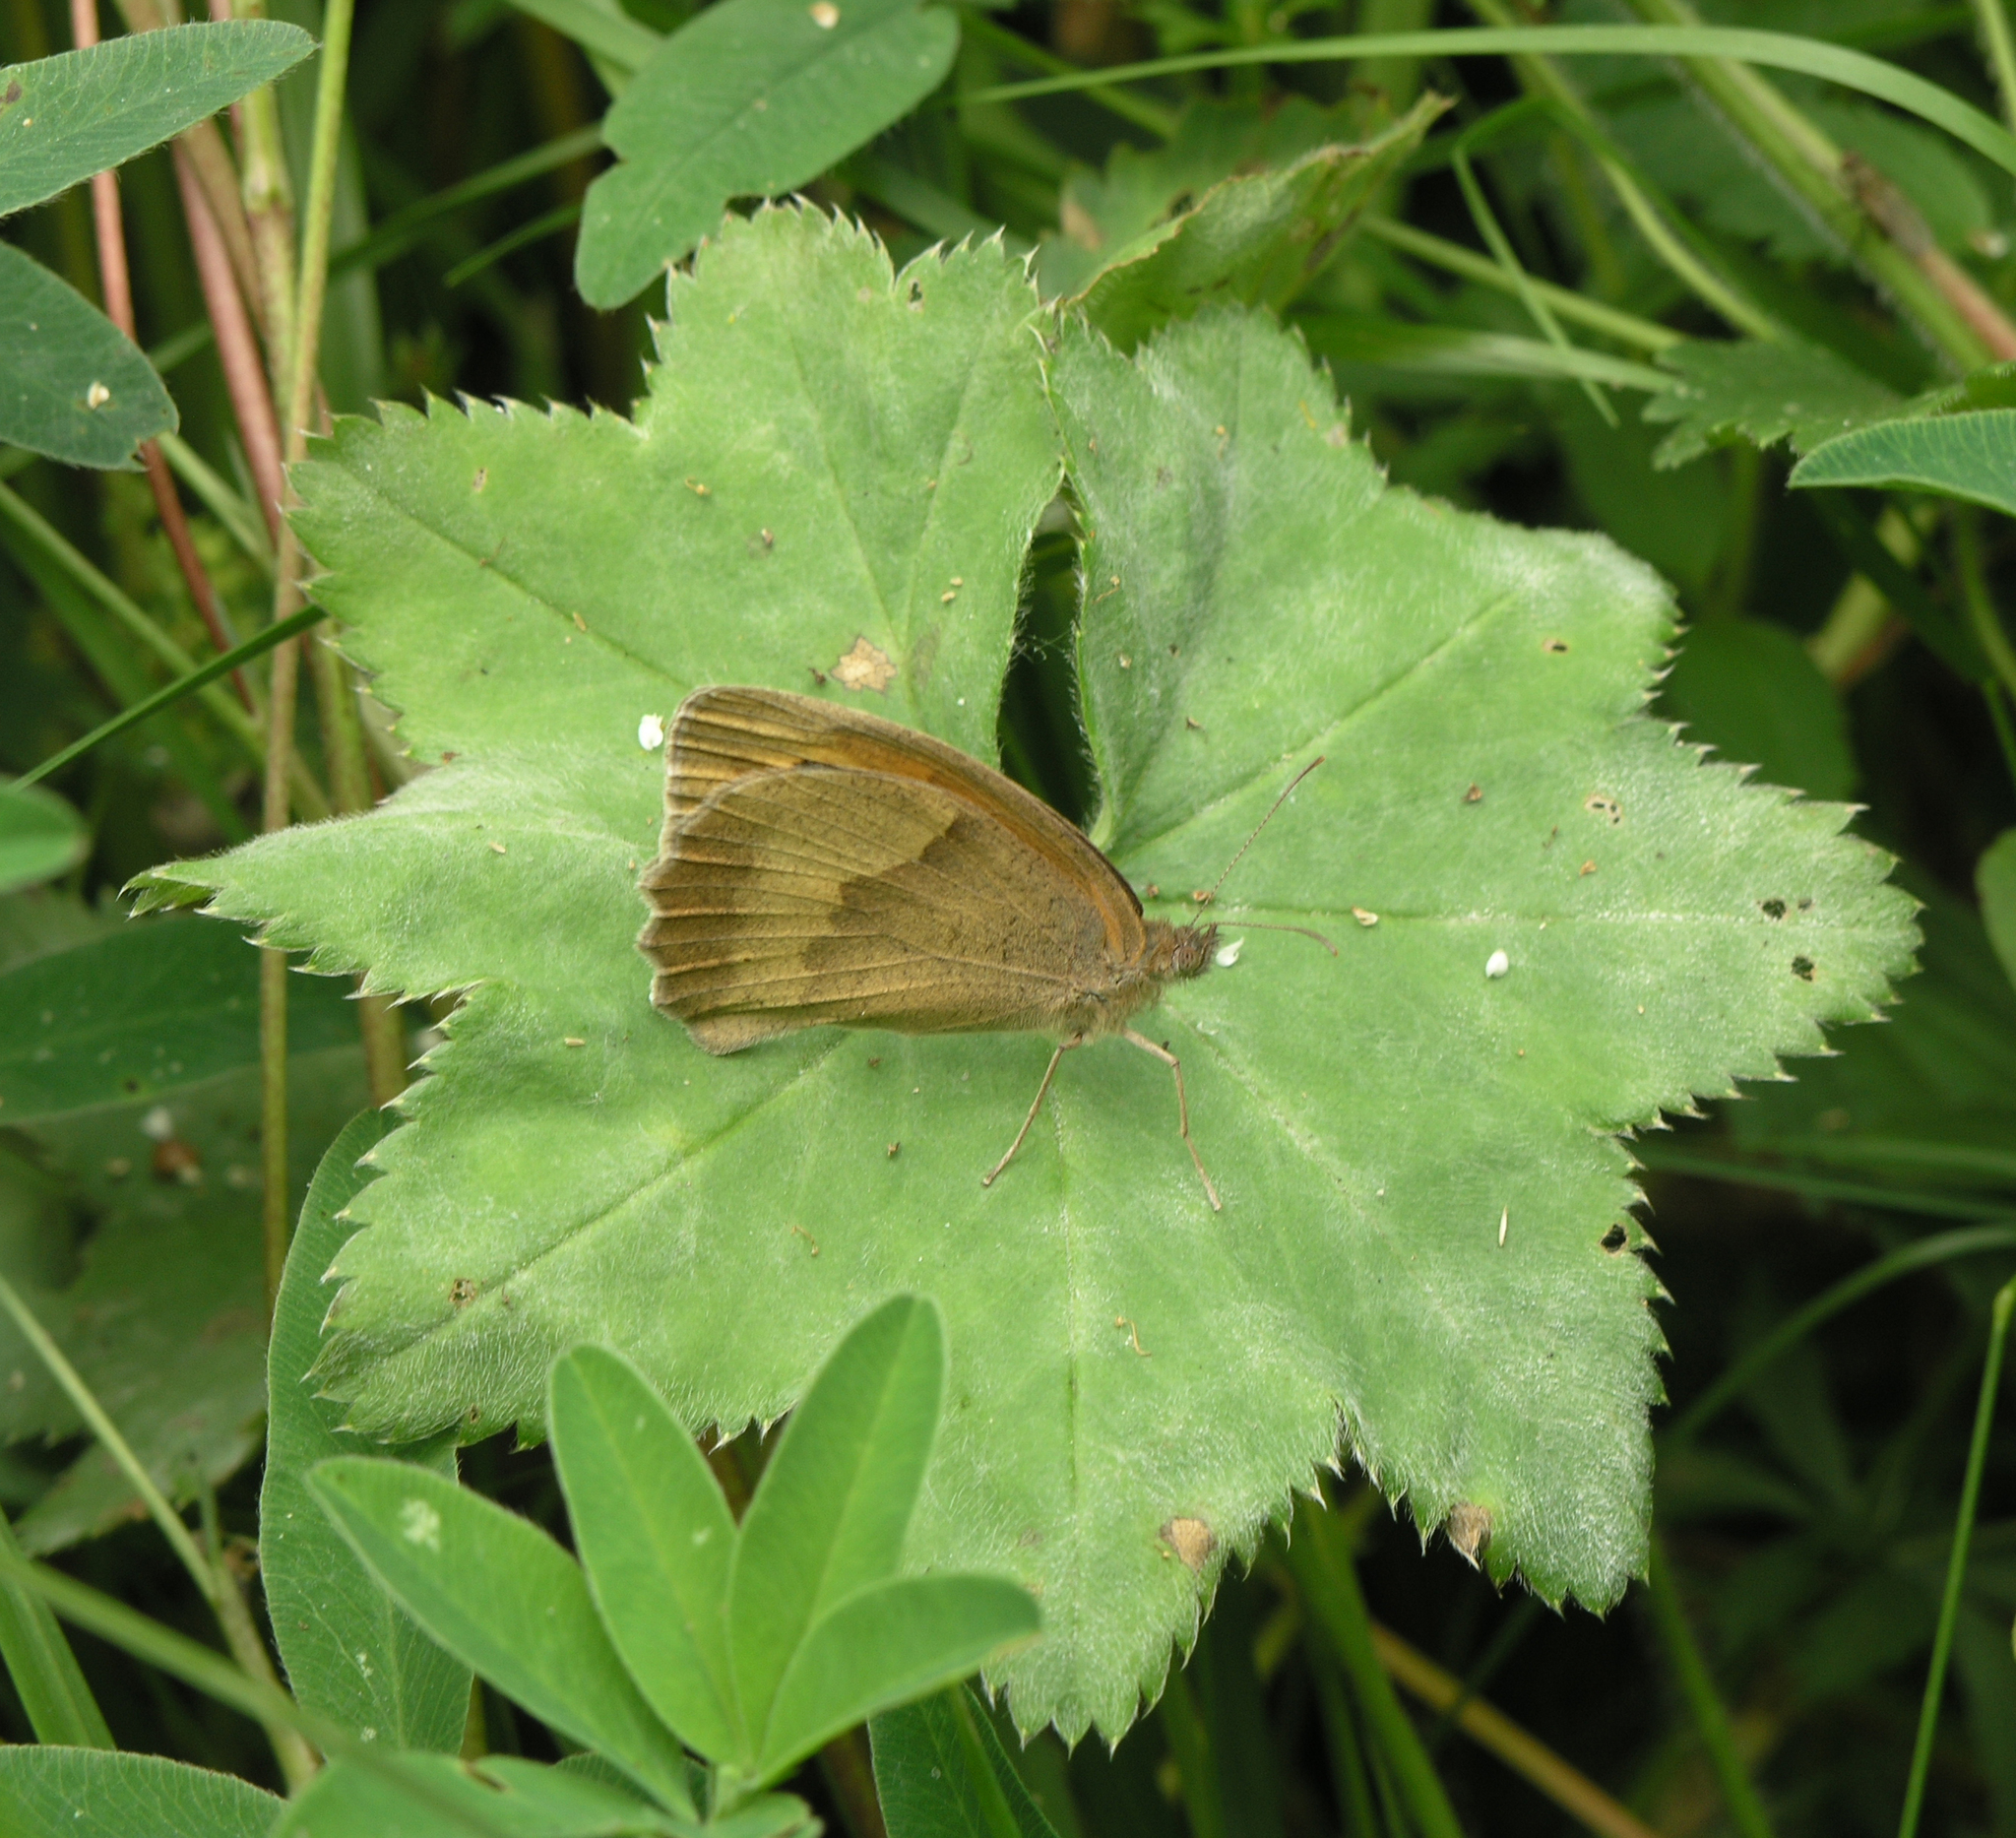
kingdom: Animalia
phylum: Arthropoda
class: Insecta
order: Lepidoptera
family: Nymphalidae
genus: Maniola
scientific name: Maniola jurtina
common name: Meadow brown
